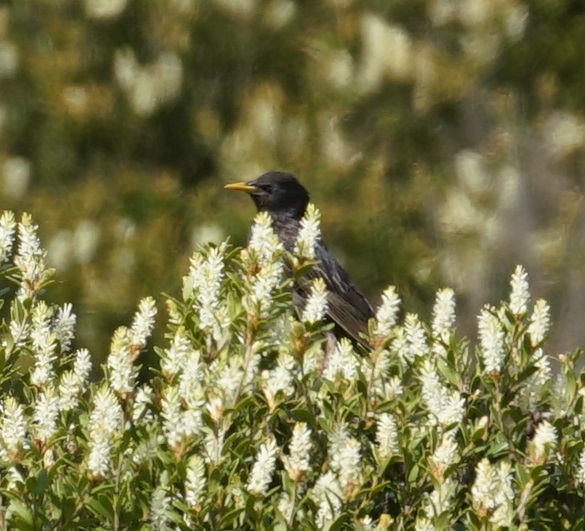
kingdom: Animalia
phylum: Chordata
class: Aves
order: Passeriformes
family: Sturnidae
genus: Sturnus
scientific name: Sturnus vulgaris
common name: Common starling
